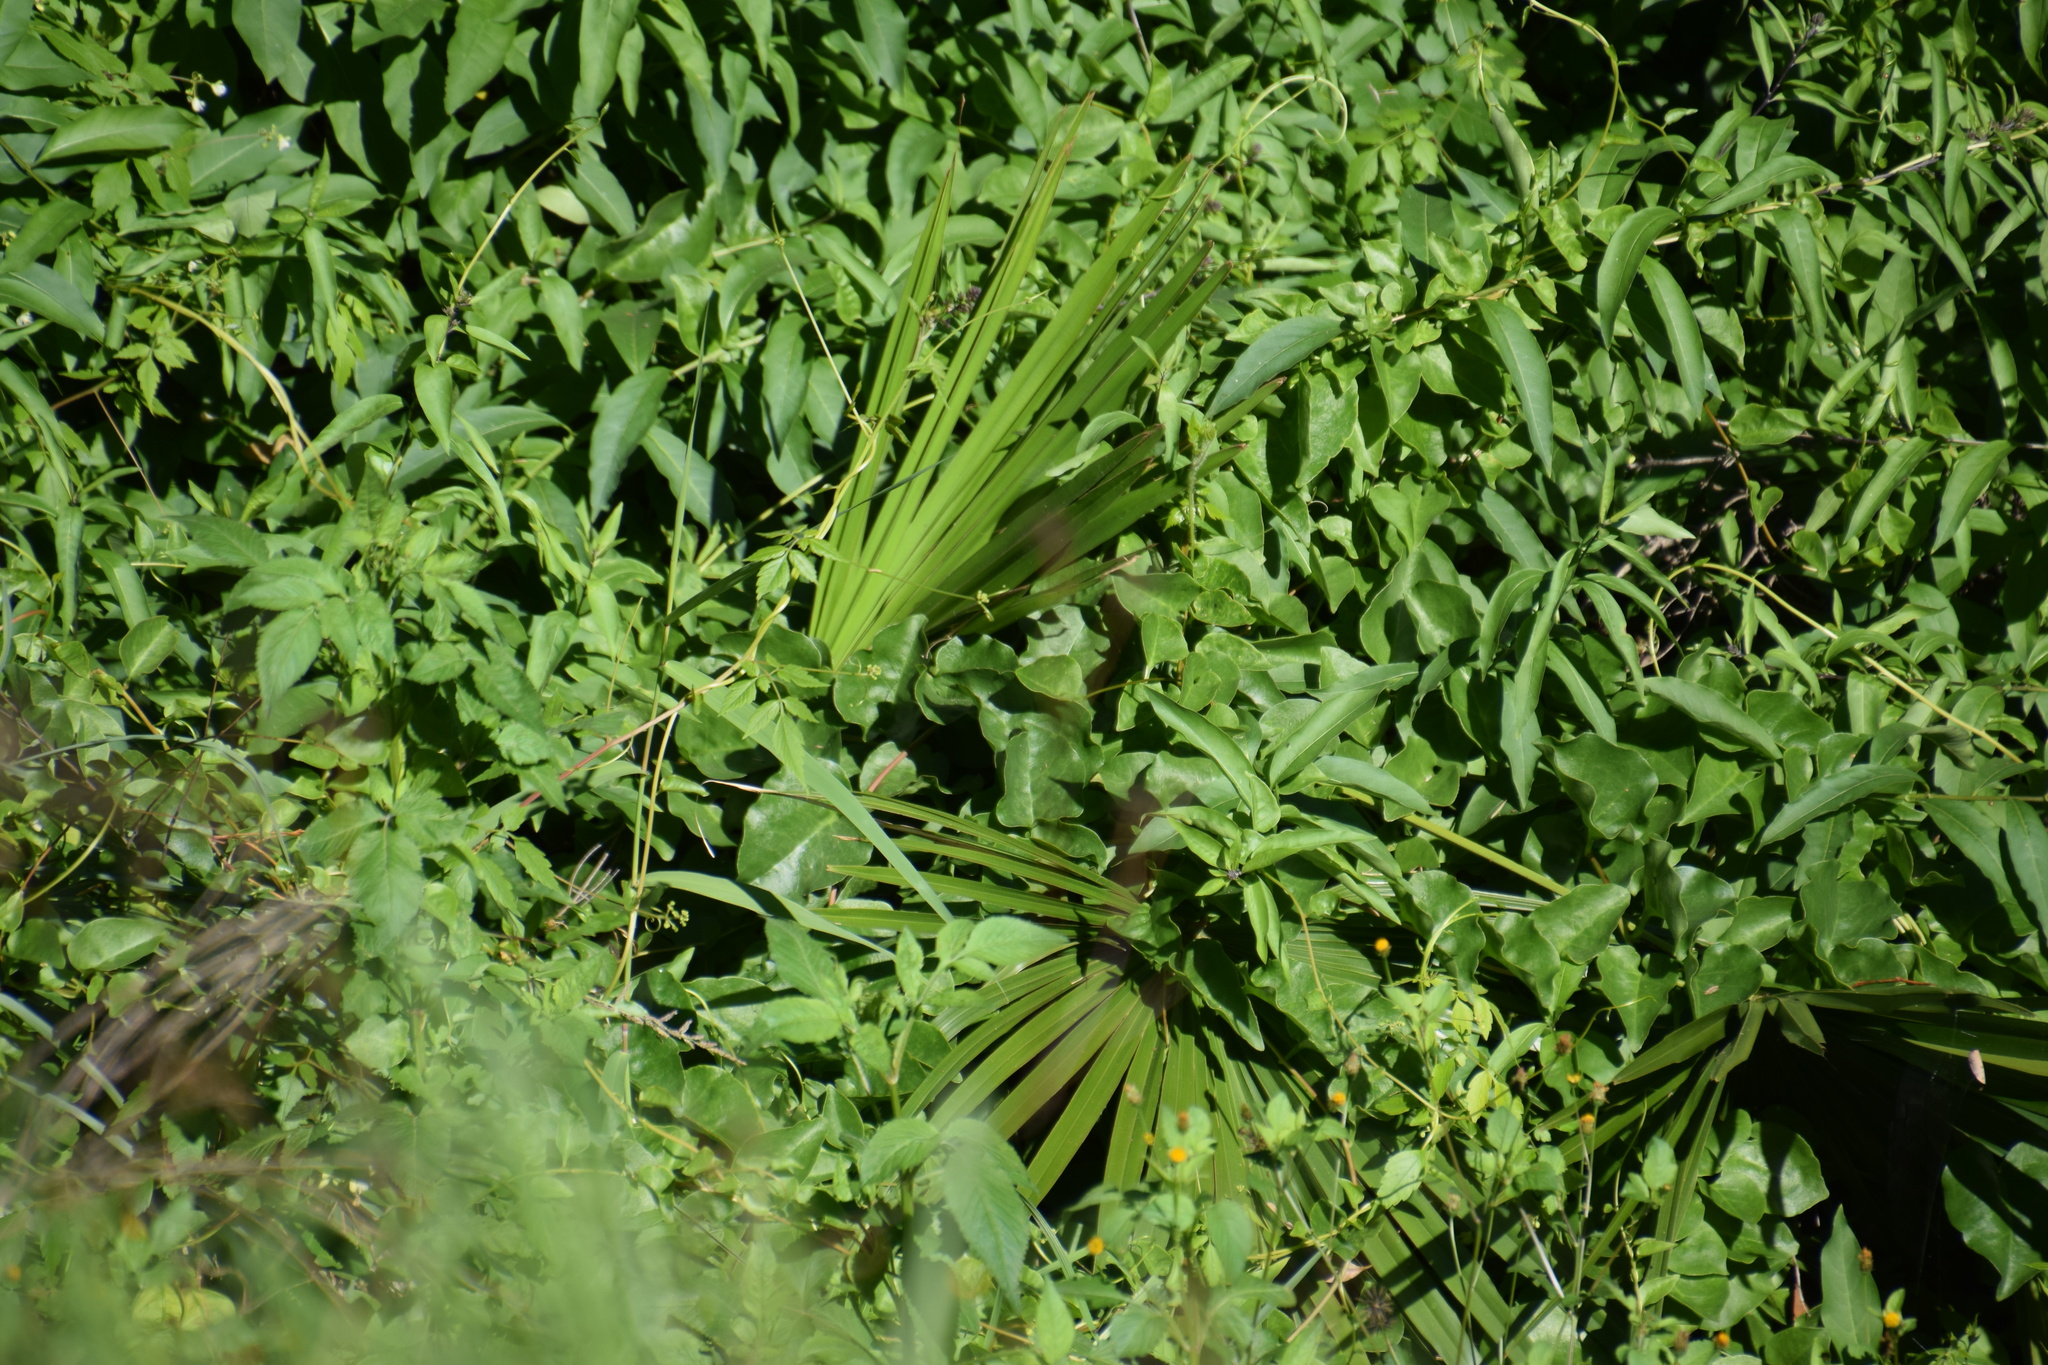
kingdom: Plantae
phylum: Tracheophyta
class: Liliopsida
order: Arecales
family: Arecaceae
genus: Livistona
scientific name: Livistona australis
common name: Cabbage fan palm
